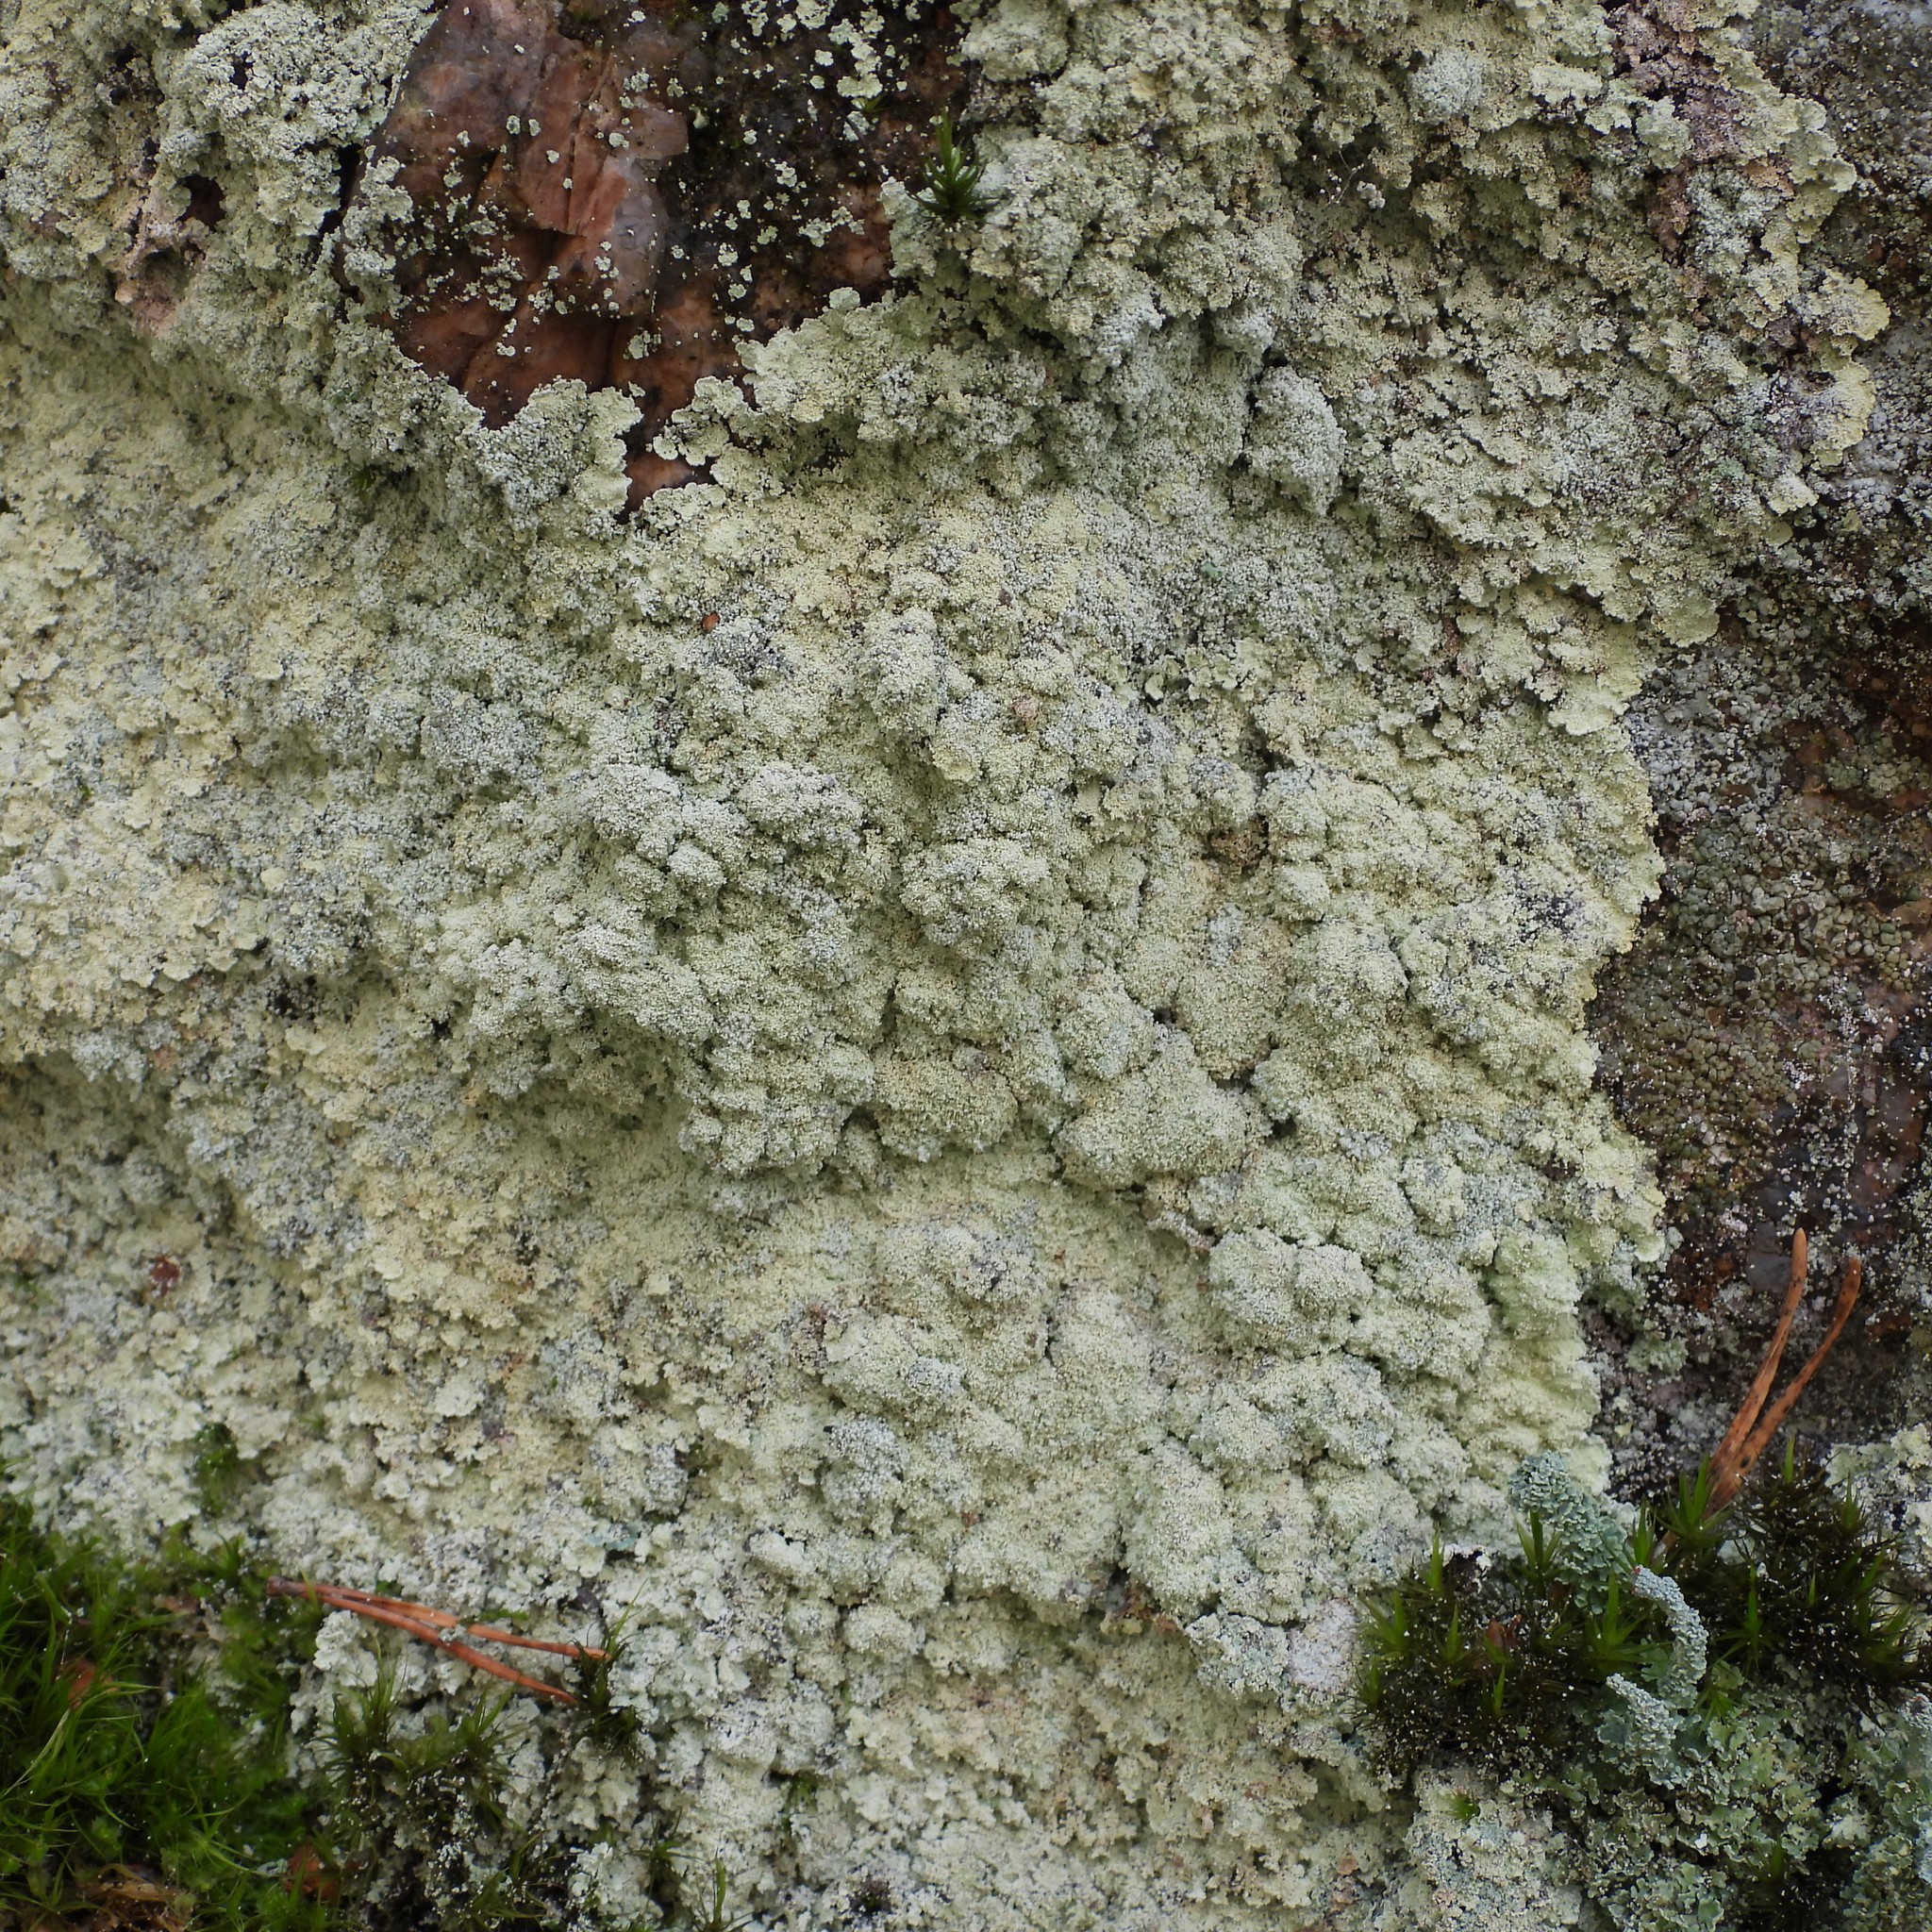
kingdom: Fungi
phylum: Ascomycota
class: Lecanoromycetes
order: Lecanorales
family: Stereocaulaceae
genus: Lepraria
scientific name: Lepraria membranacea
